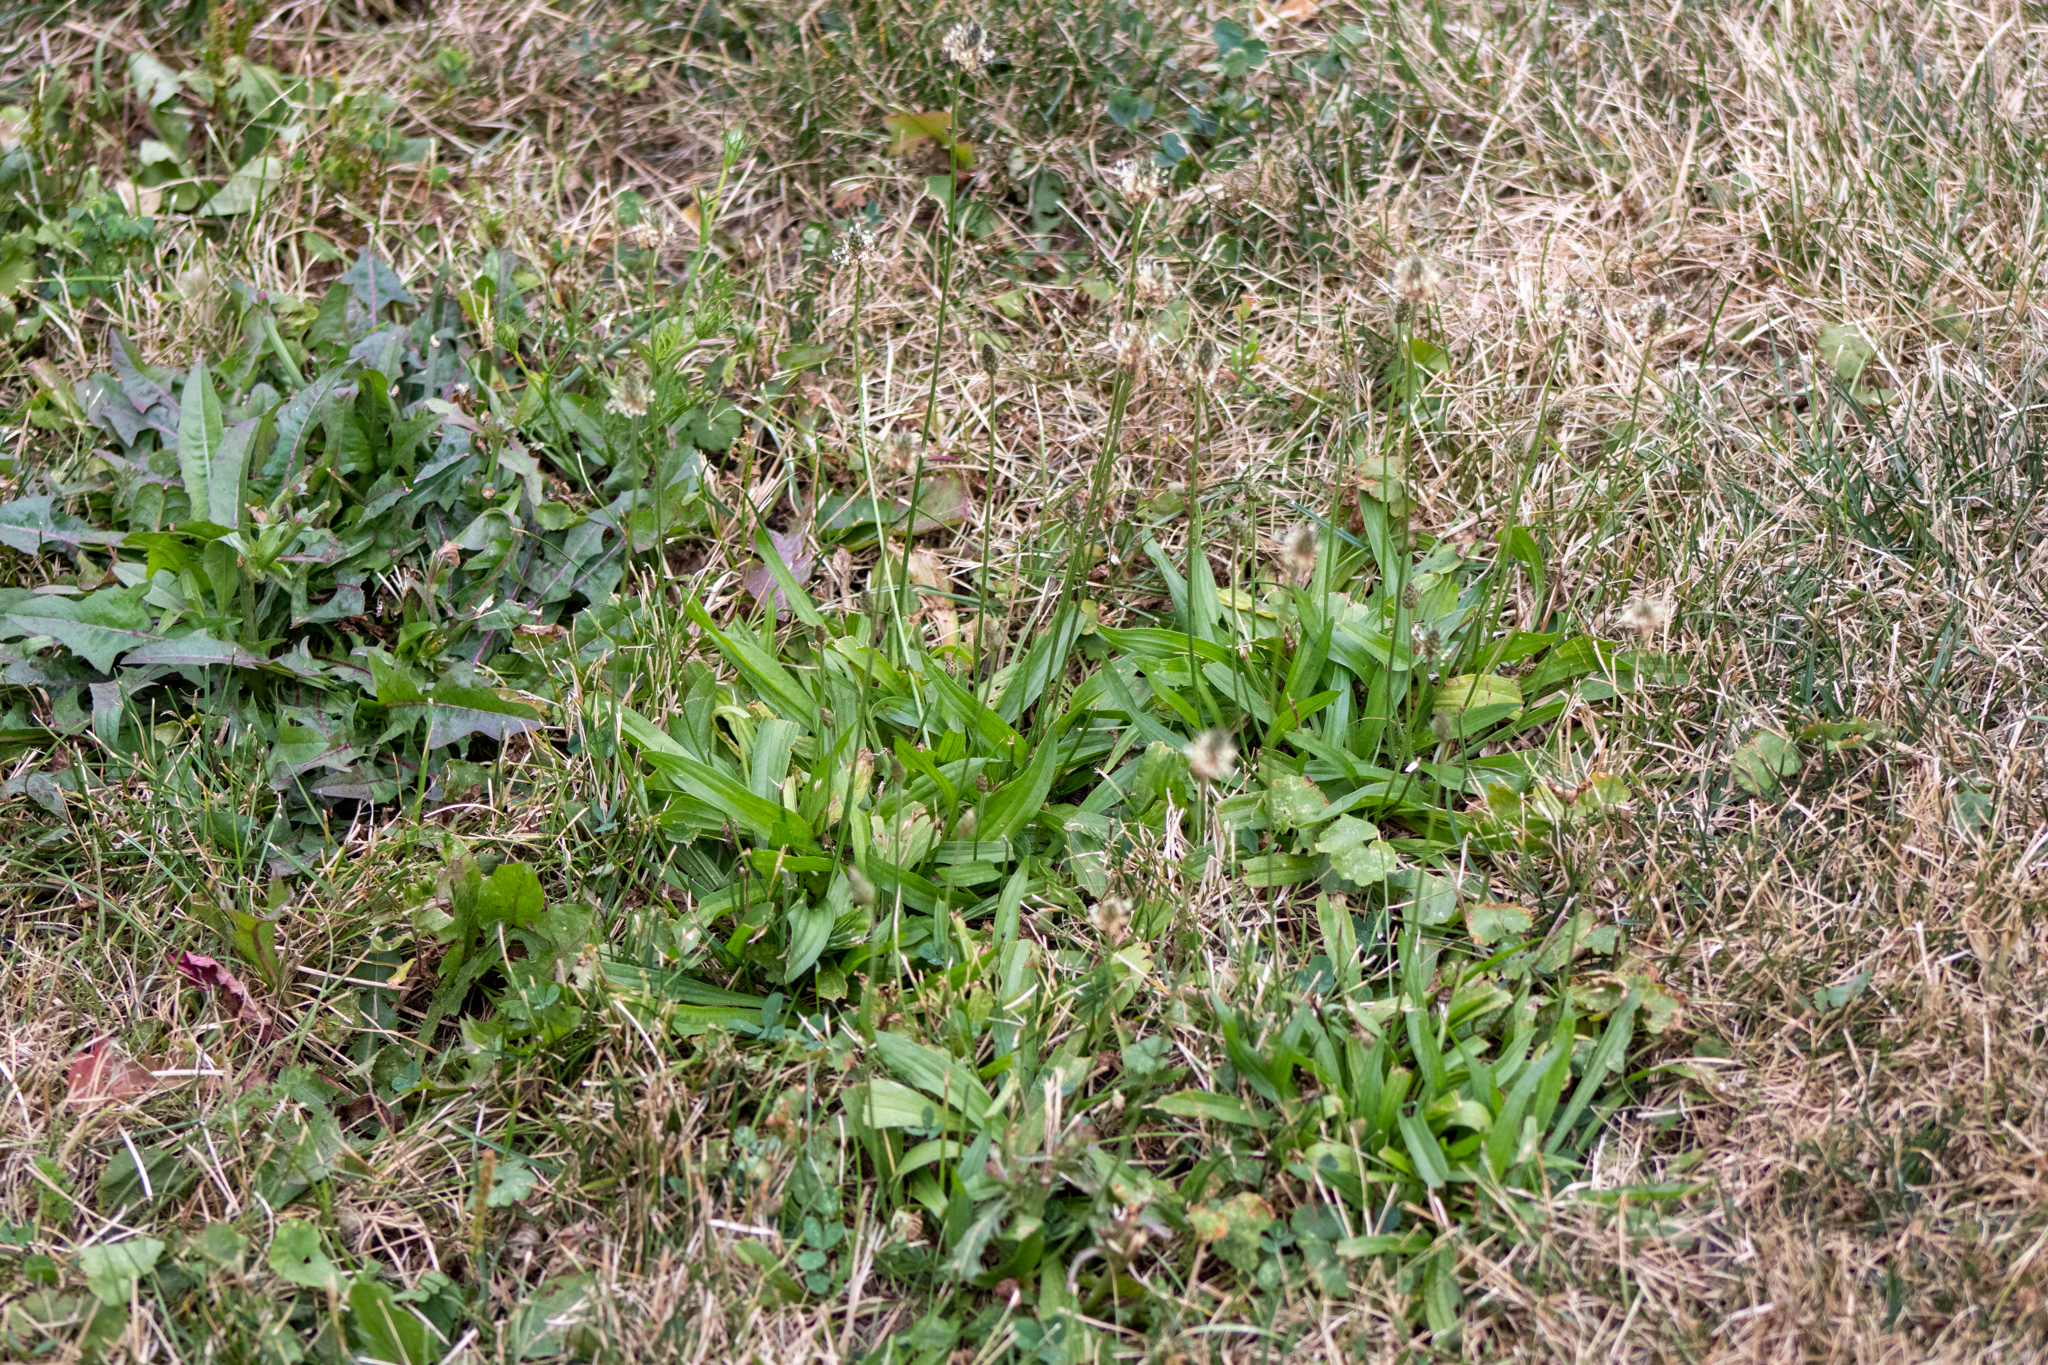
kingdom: Plantae
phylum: Tracheophyta
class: Magnoliopsida
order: Lamiales
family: Plantaginaceae
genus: Plantago
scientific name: Plantago lanceolata
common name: Ribwort plantain
